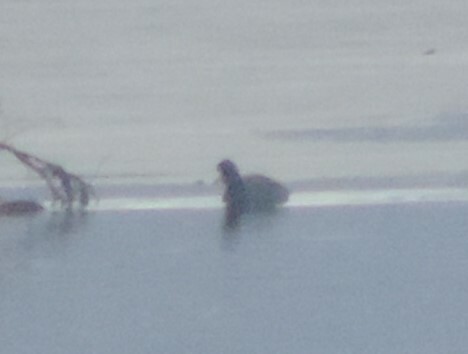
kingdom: Animalia
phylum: Chordata
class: Aves
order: Gruiformes
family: Rallidae
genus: Fulica
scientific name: Fulica americana
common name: American coot
